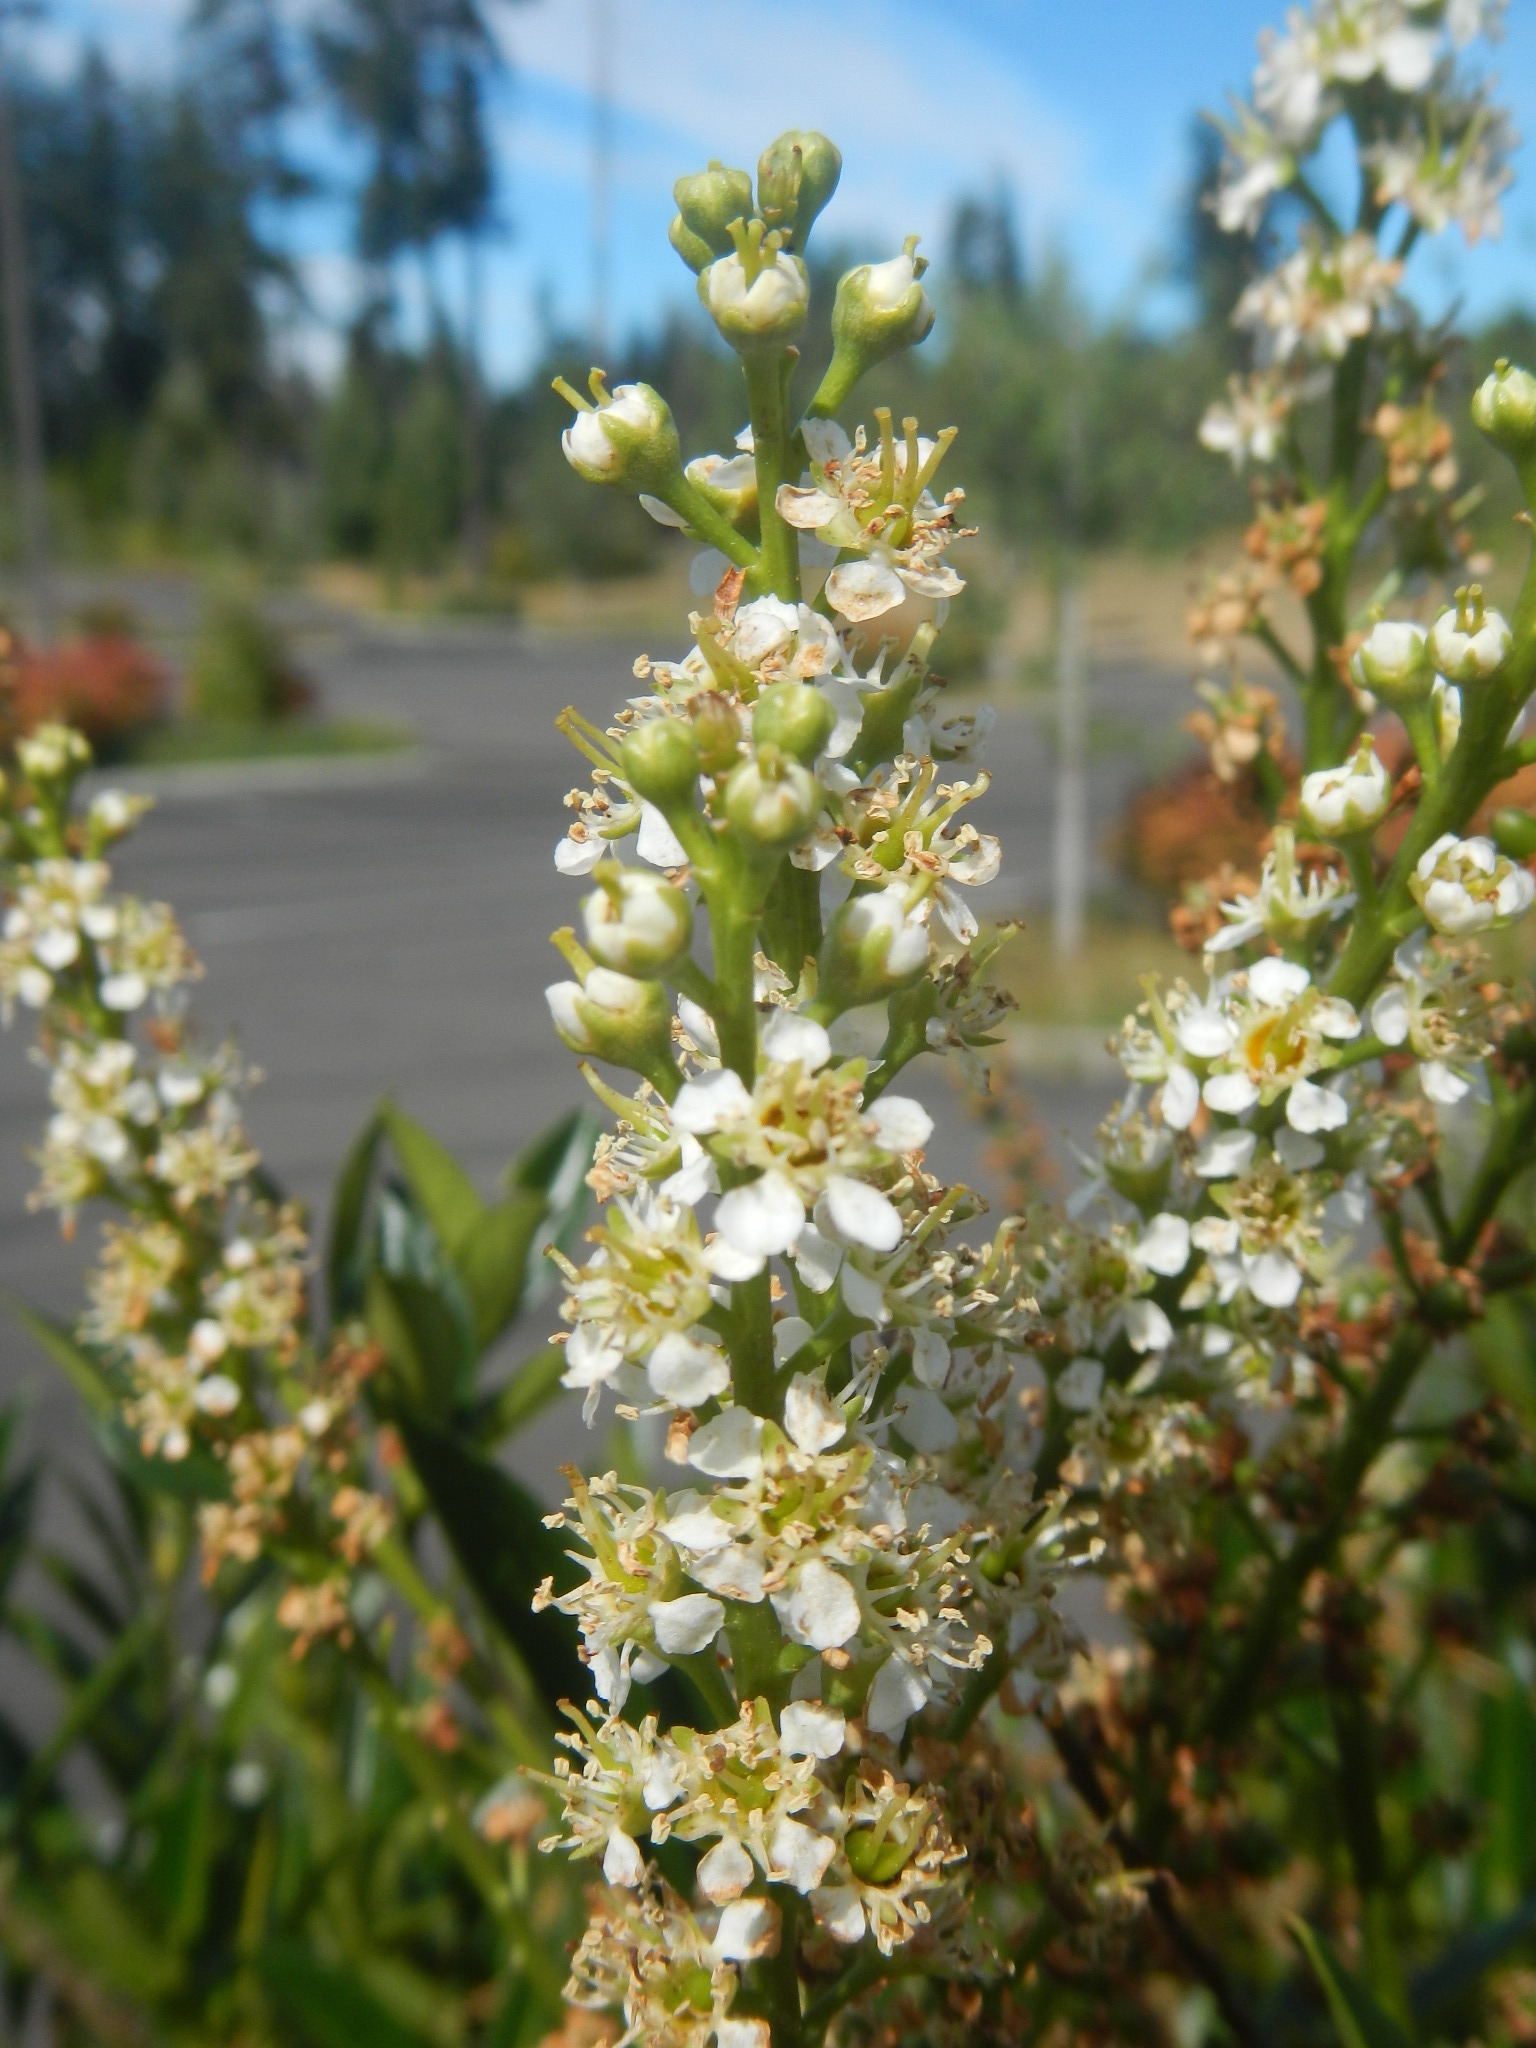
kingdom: Plantae
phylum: Tracheophyta
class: Magnoliopsida
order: Rosales
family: Rosaceae
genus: Prunus
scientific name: Prunus laurocerasus
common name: Cherry laurel
